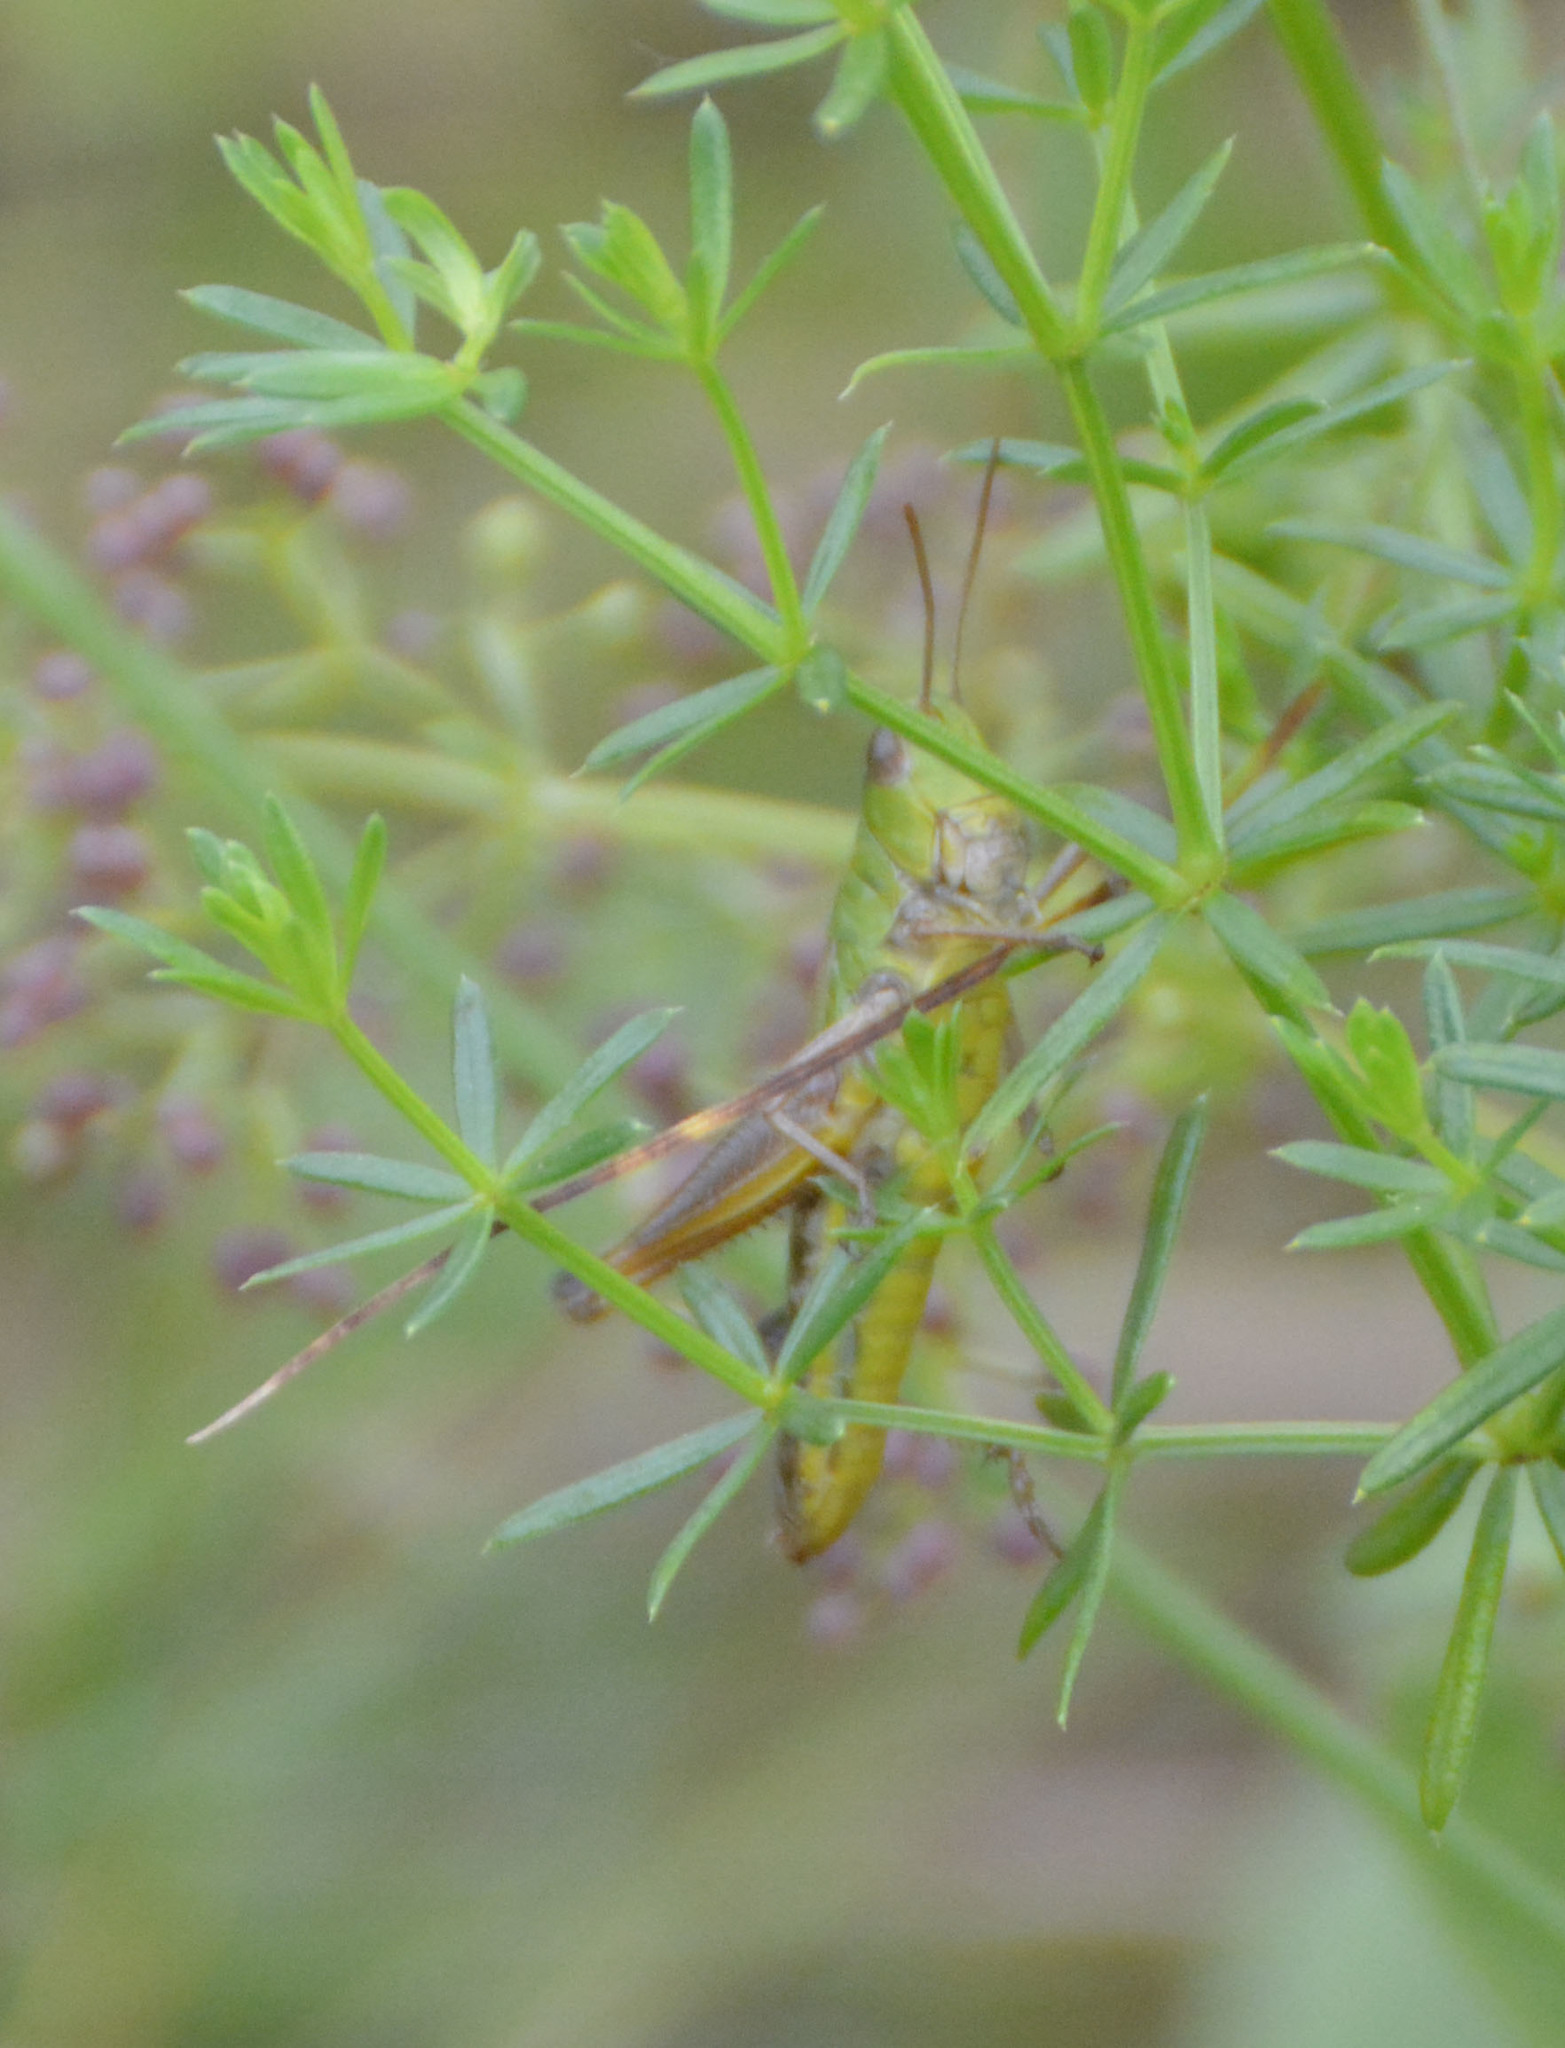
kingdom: Animalia
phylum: Arthropoda
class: Insecta
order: Orthoptera
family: Acrididae
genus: Pseudochorthippus
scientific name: Pseudochorthippus parallelus
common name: Meadow grasshopper
